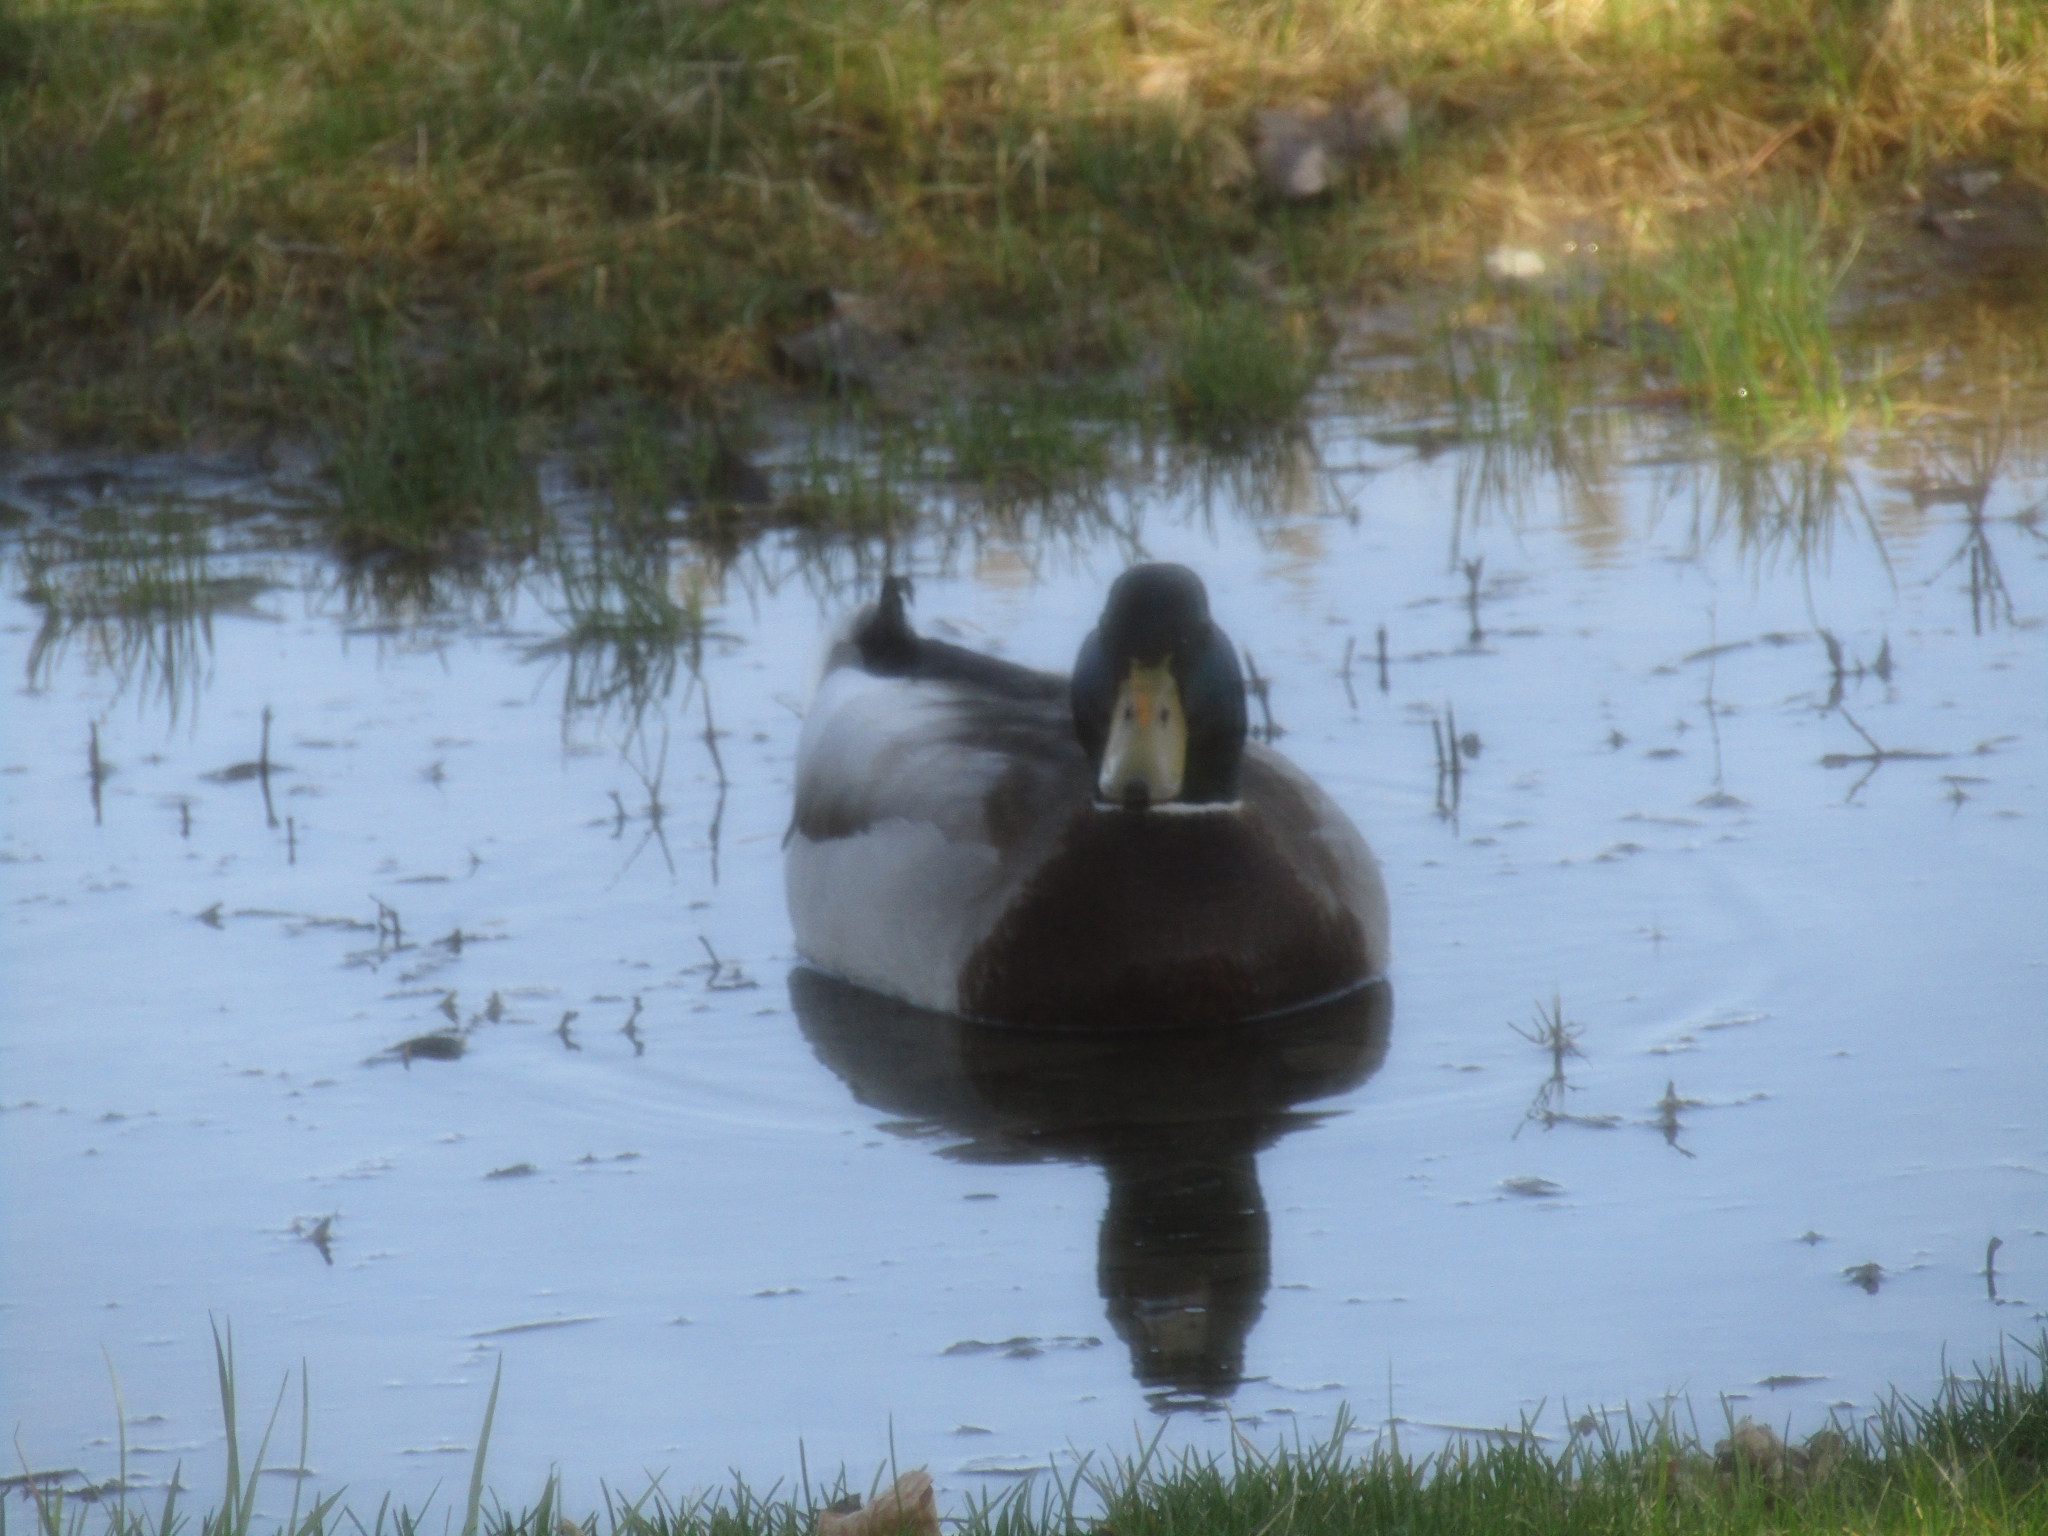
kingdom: Animalia
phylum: Chordata
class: Aves
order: Anseriformes
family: Anatidae
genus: Anas
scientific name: Anas platyrhynchos
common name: Mallard
